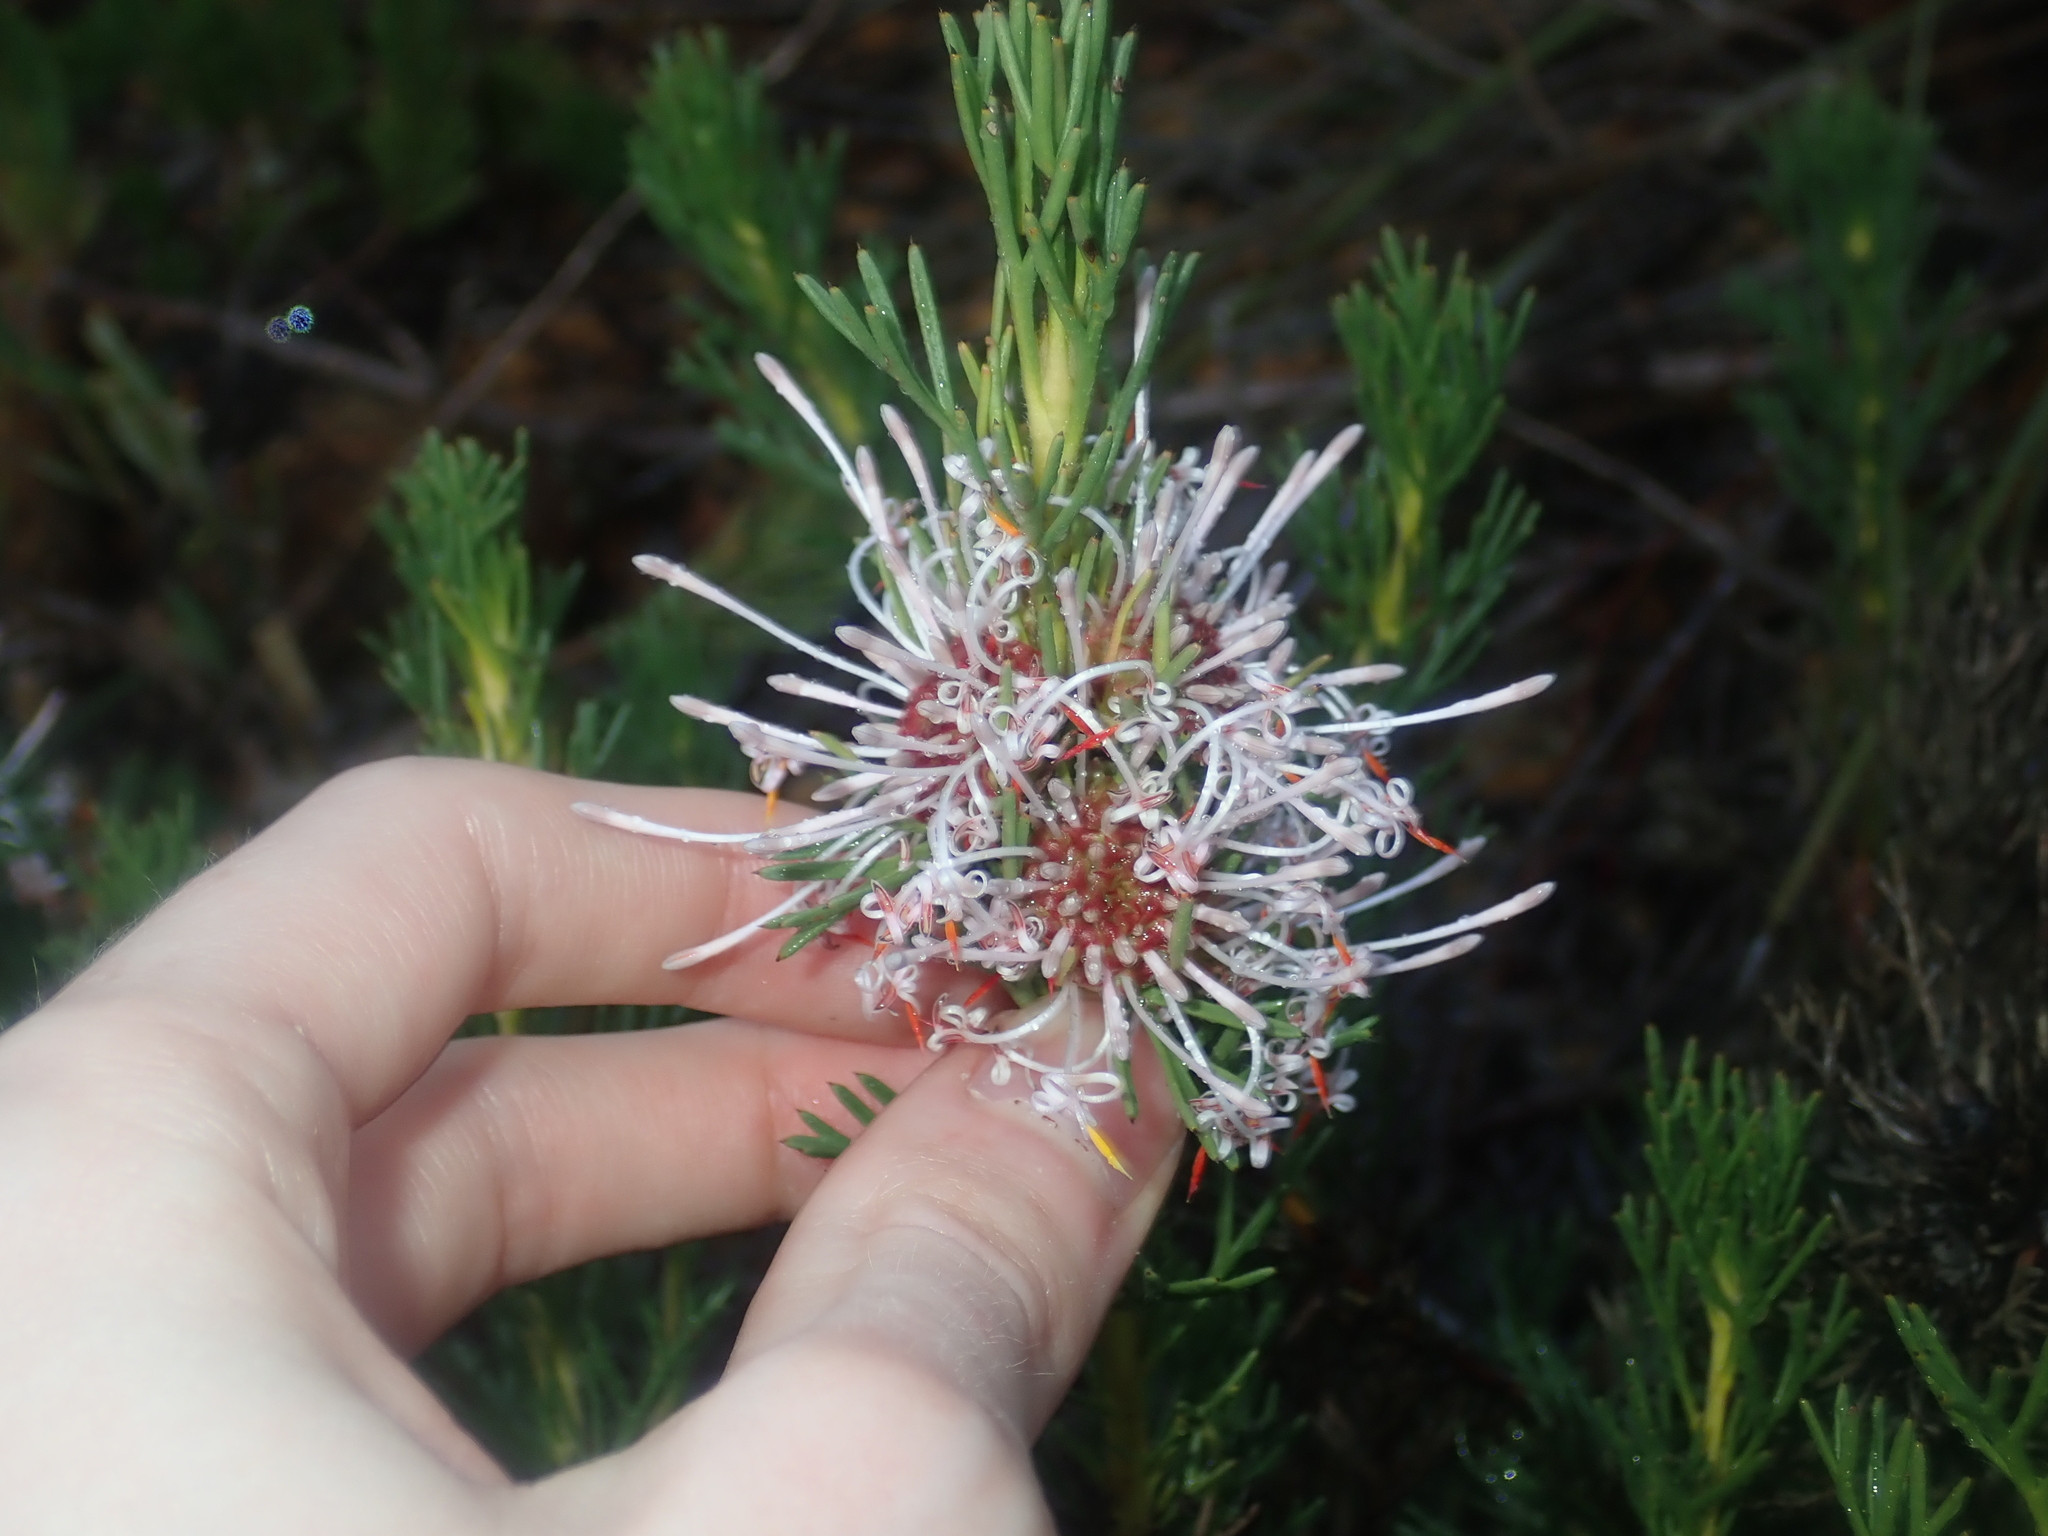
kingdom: Plantae
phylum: Tracheophyta
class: Magnoliopsida
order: Proteales
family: Proteaceae
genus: Isopogon
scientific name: Isopogon asper
